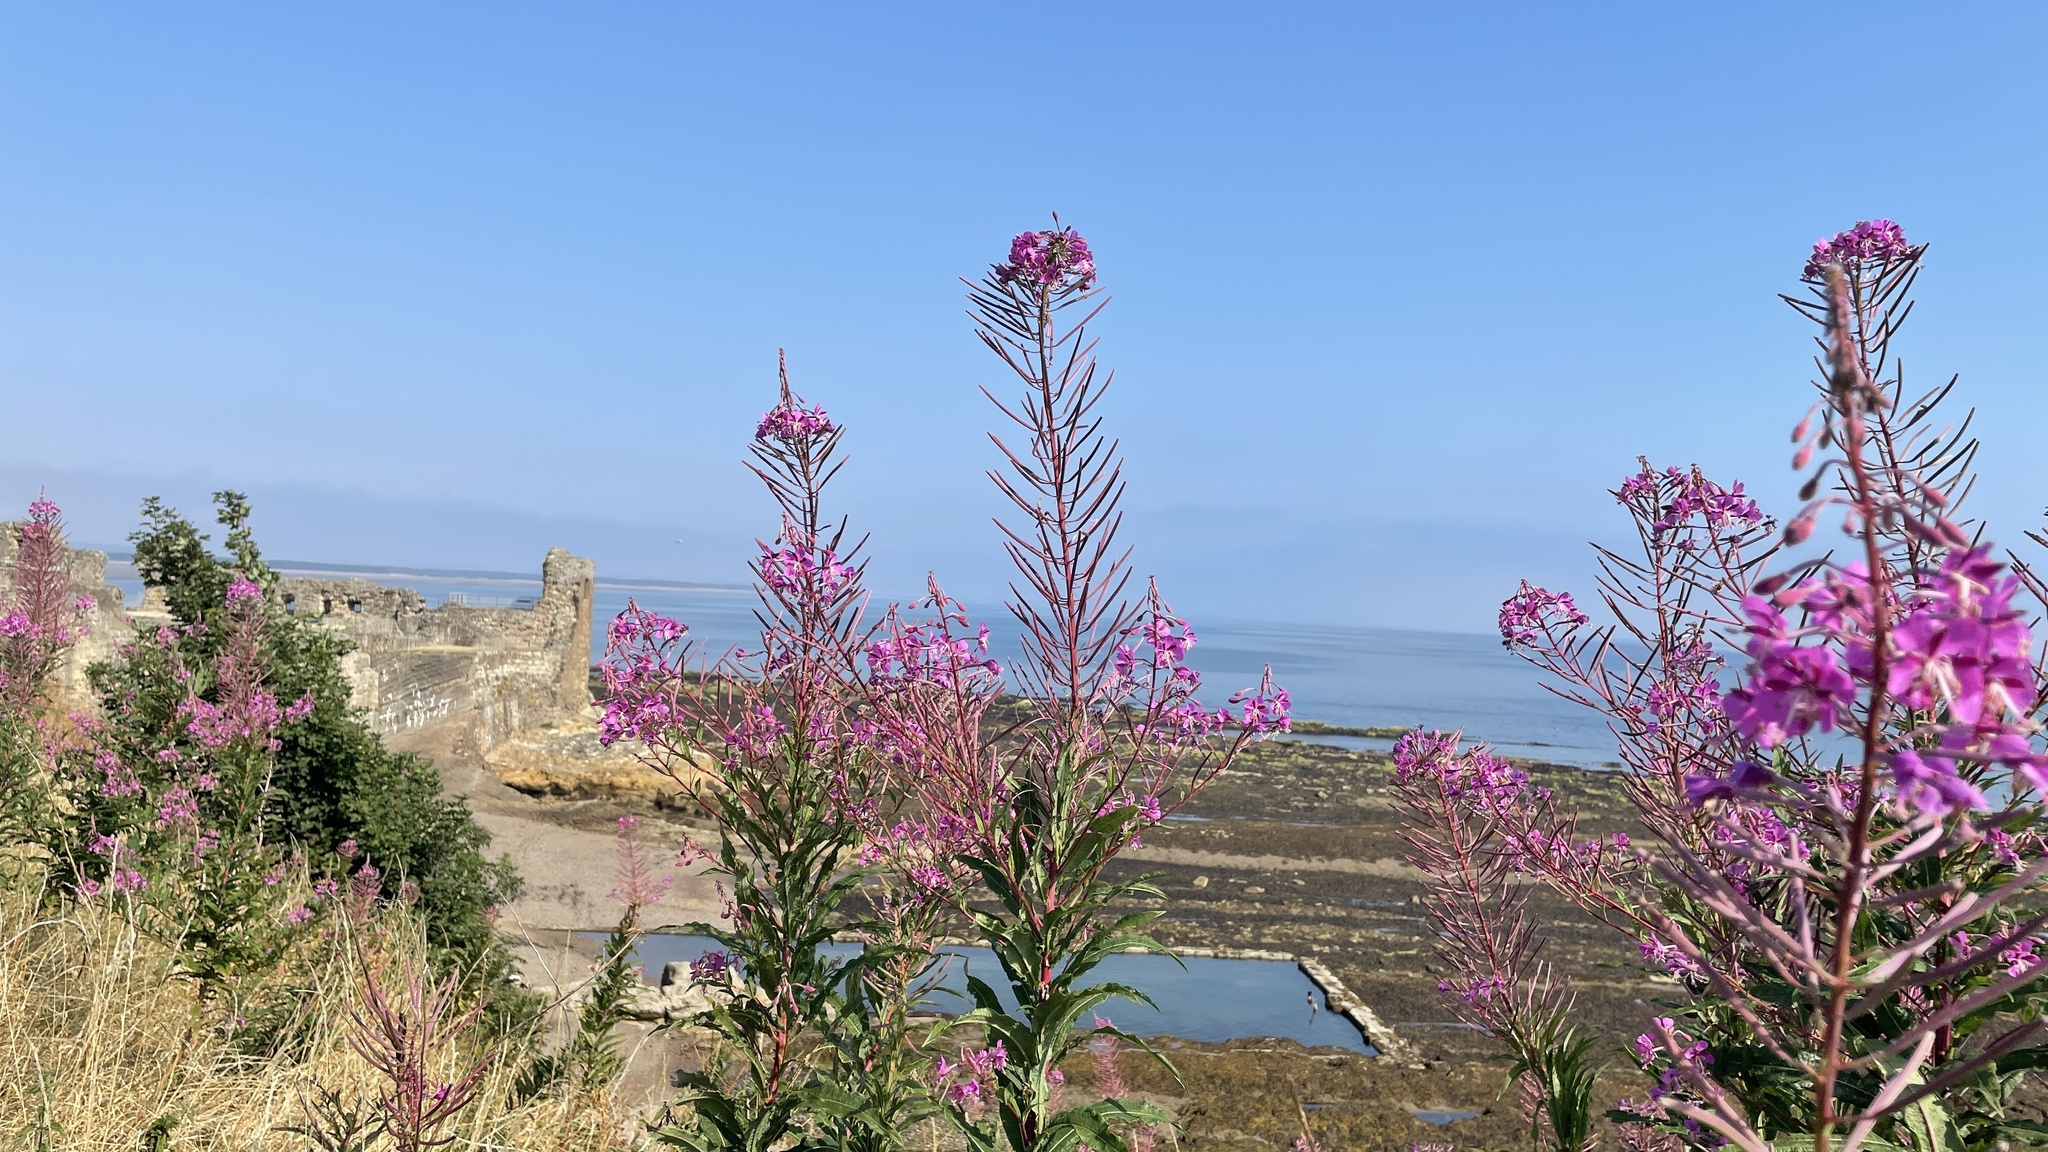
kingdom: Plantae
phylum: Tracheophyta
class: Magnoliopsida
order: Myrtales
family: Onagraceae
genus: Chamaenerion
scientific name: Chamaenerion angustifolium
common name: Fireweed
